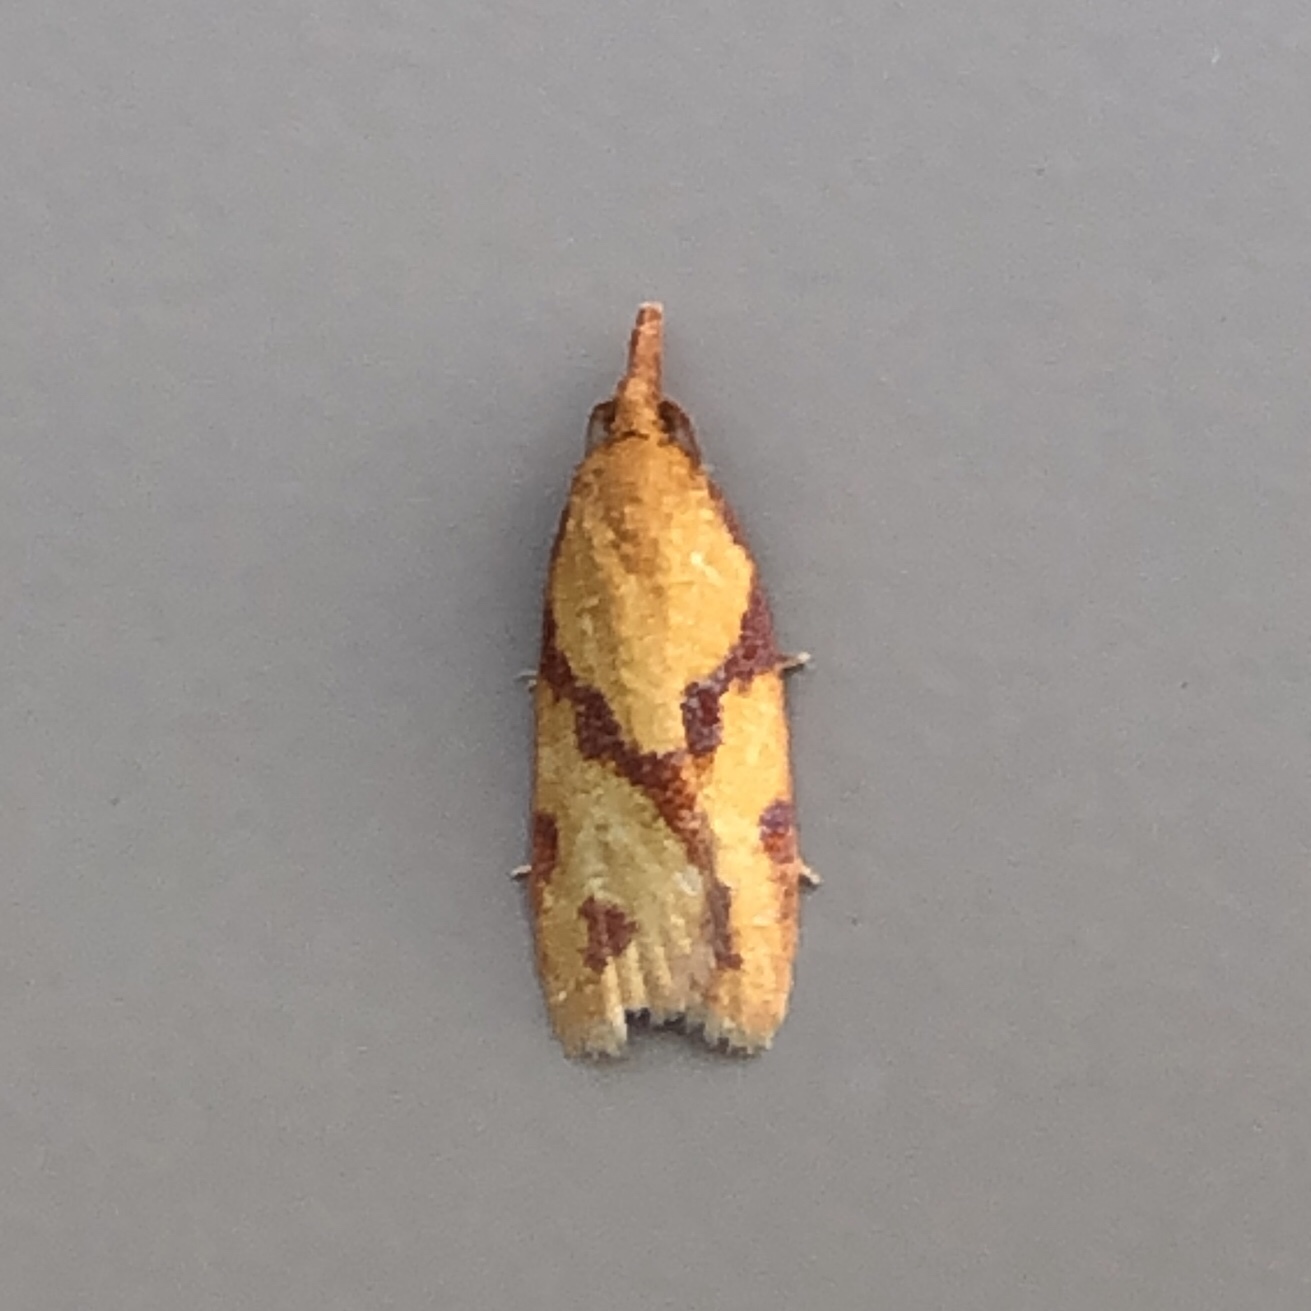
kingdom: Animalia
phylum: Arthropoda
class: Insecta
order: Lepidoptera
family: Tortricidae
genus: Sparganothis
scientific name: Sparganothis unifasciana
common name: One-lined sparganothis moth
